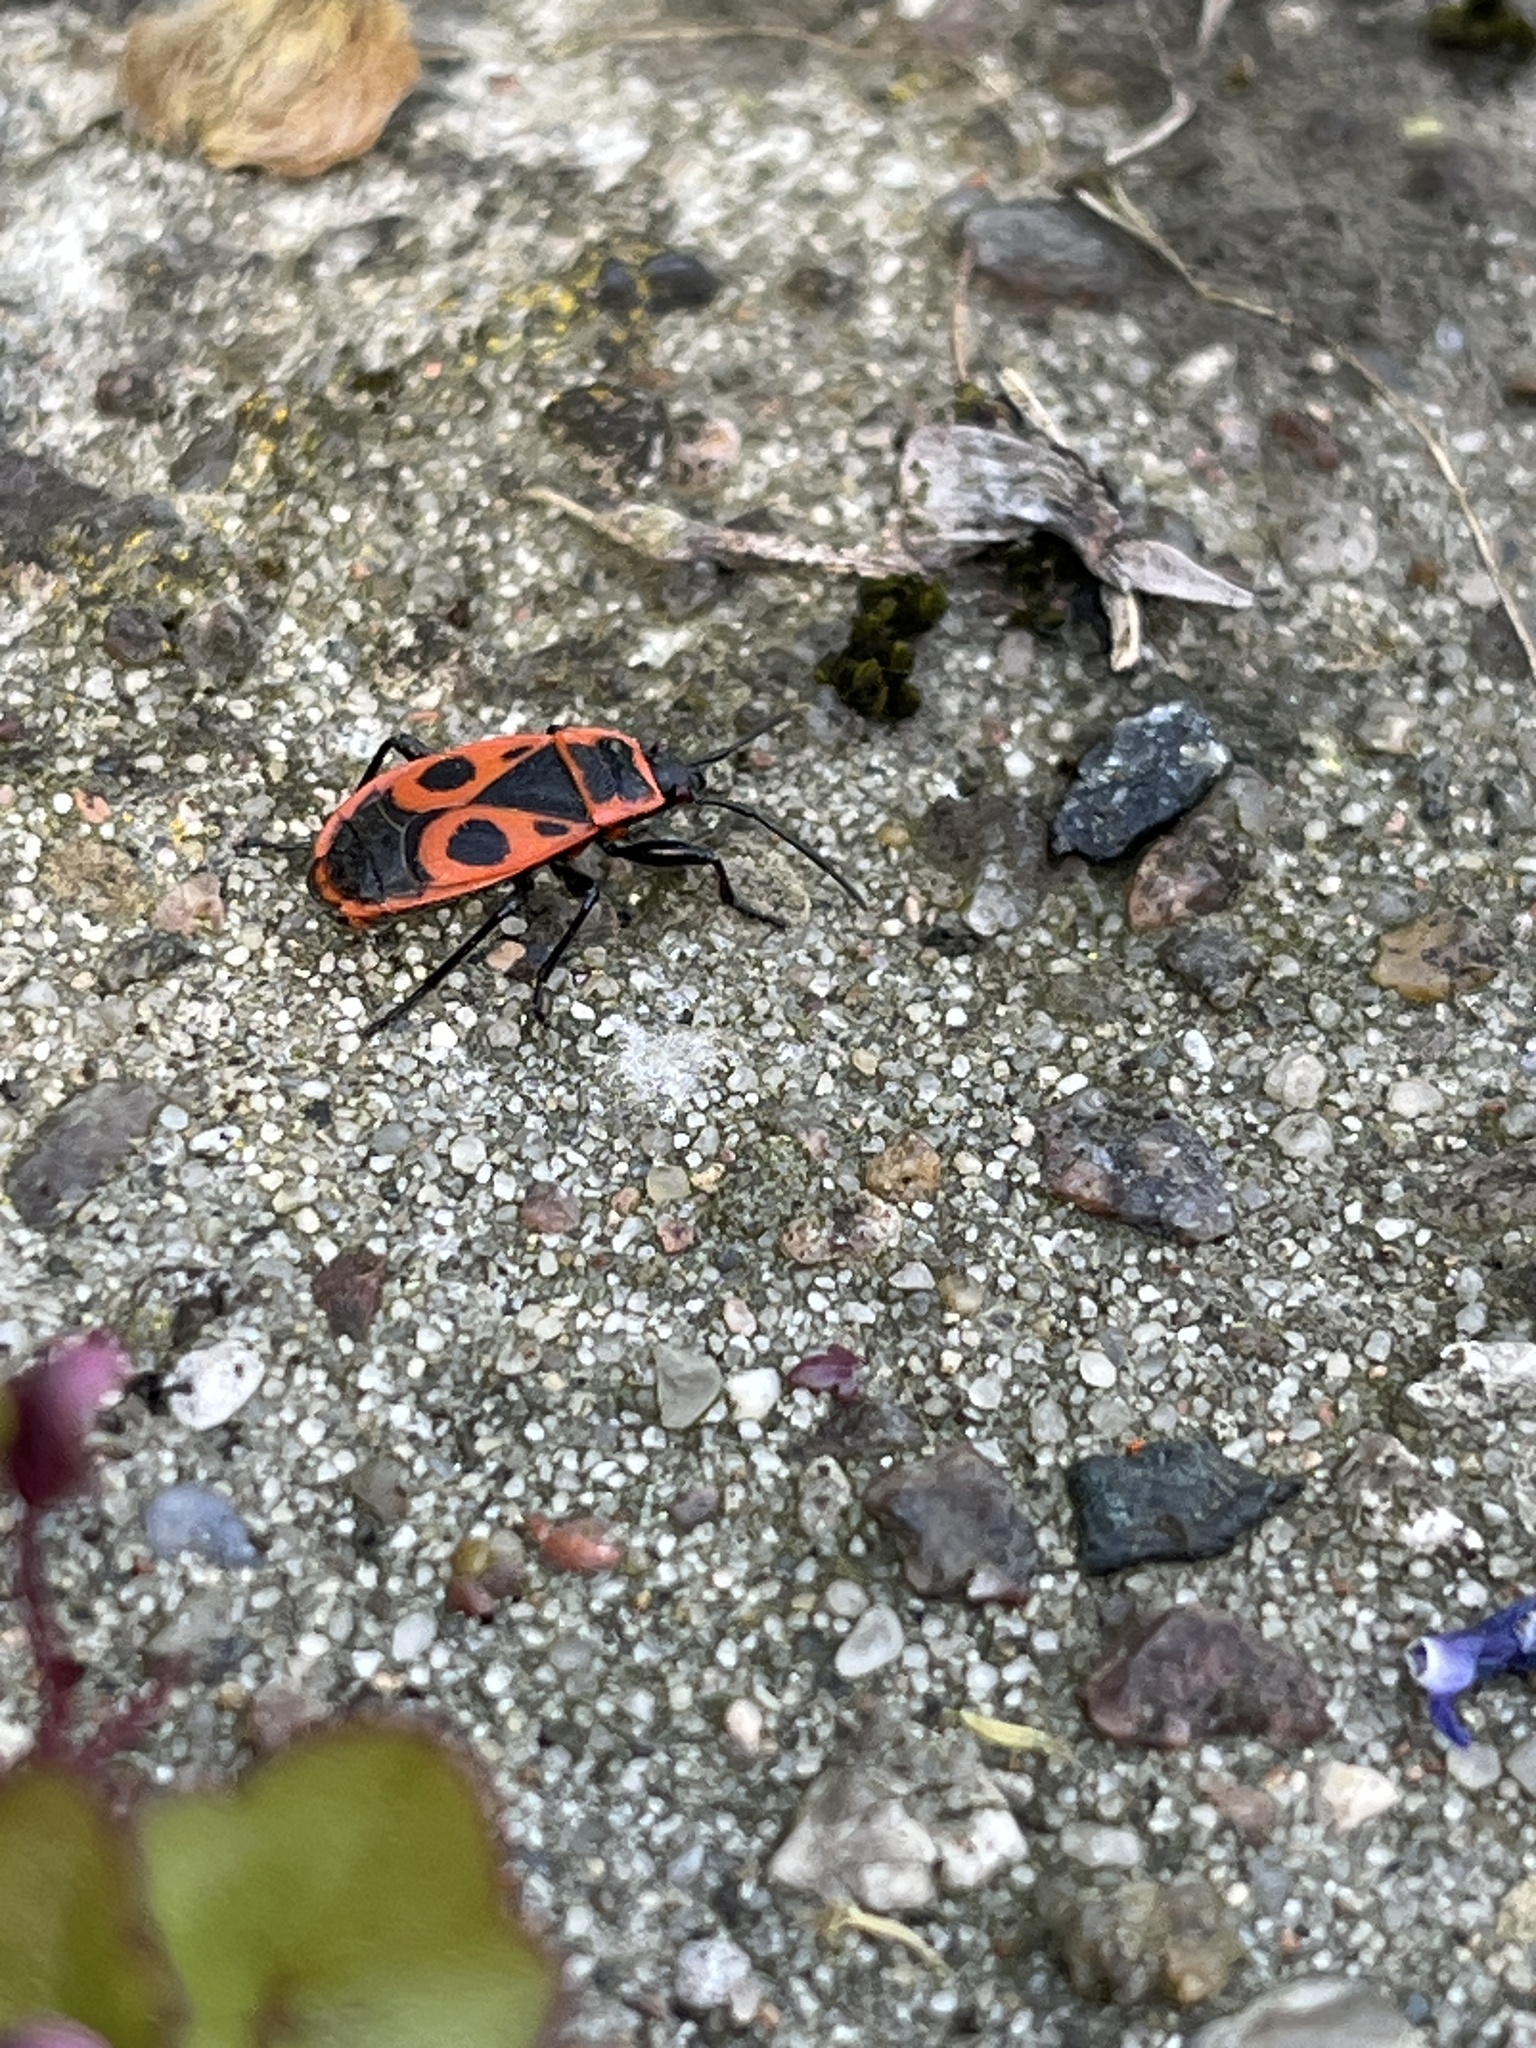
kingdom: Animalia
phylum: Arthropoda
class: Insecta
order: Hemiptera
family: Pyrrhocoridae
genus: Pyrrhocoris
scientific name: Pyrrhocoris apterus
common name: Firebug
